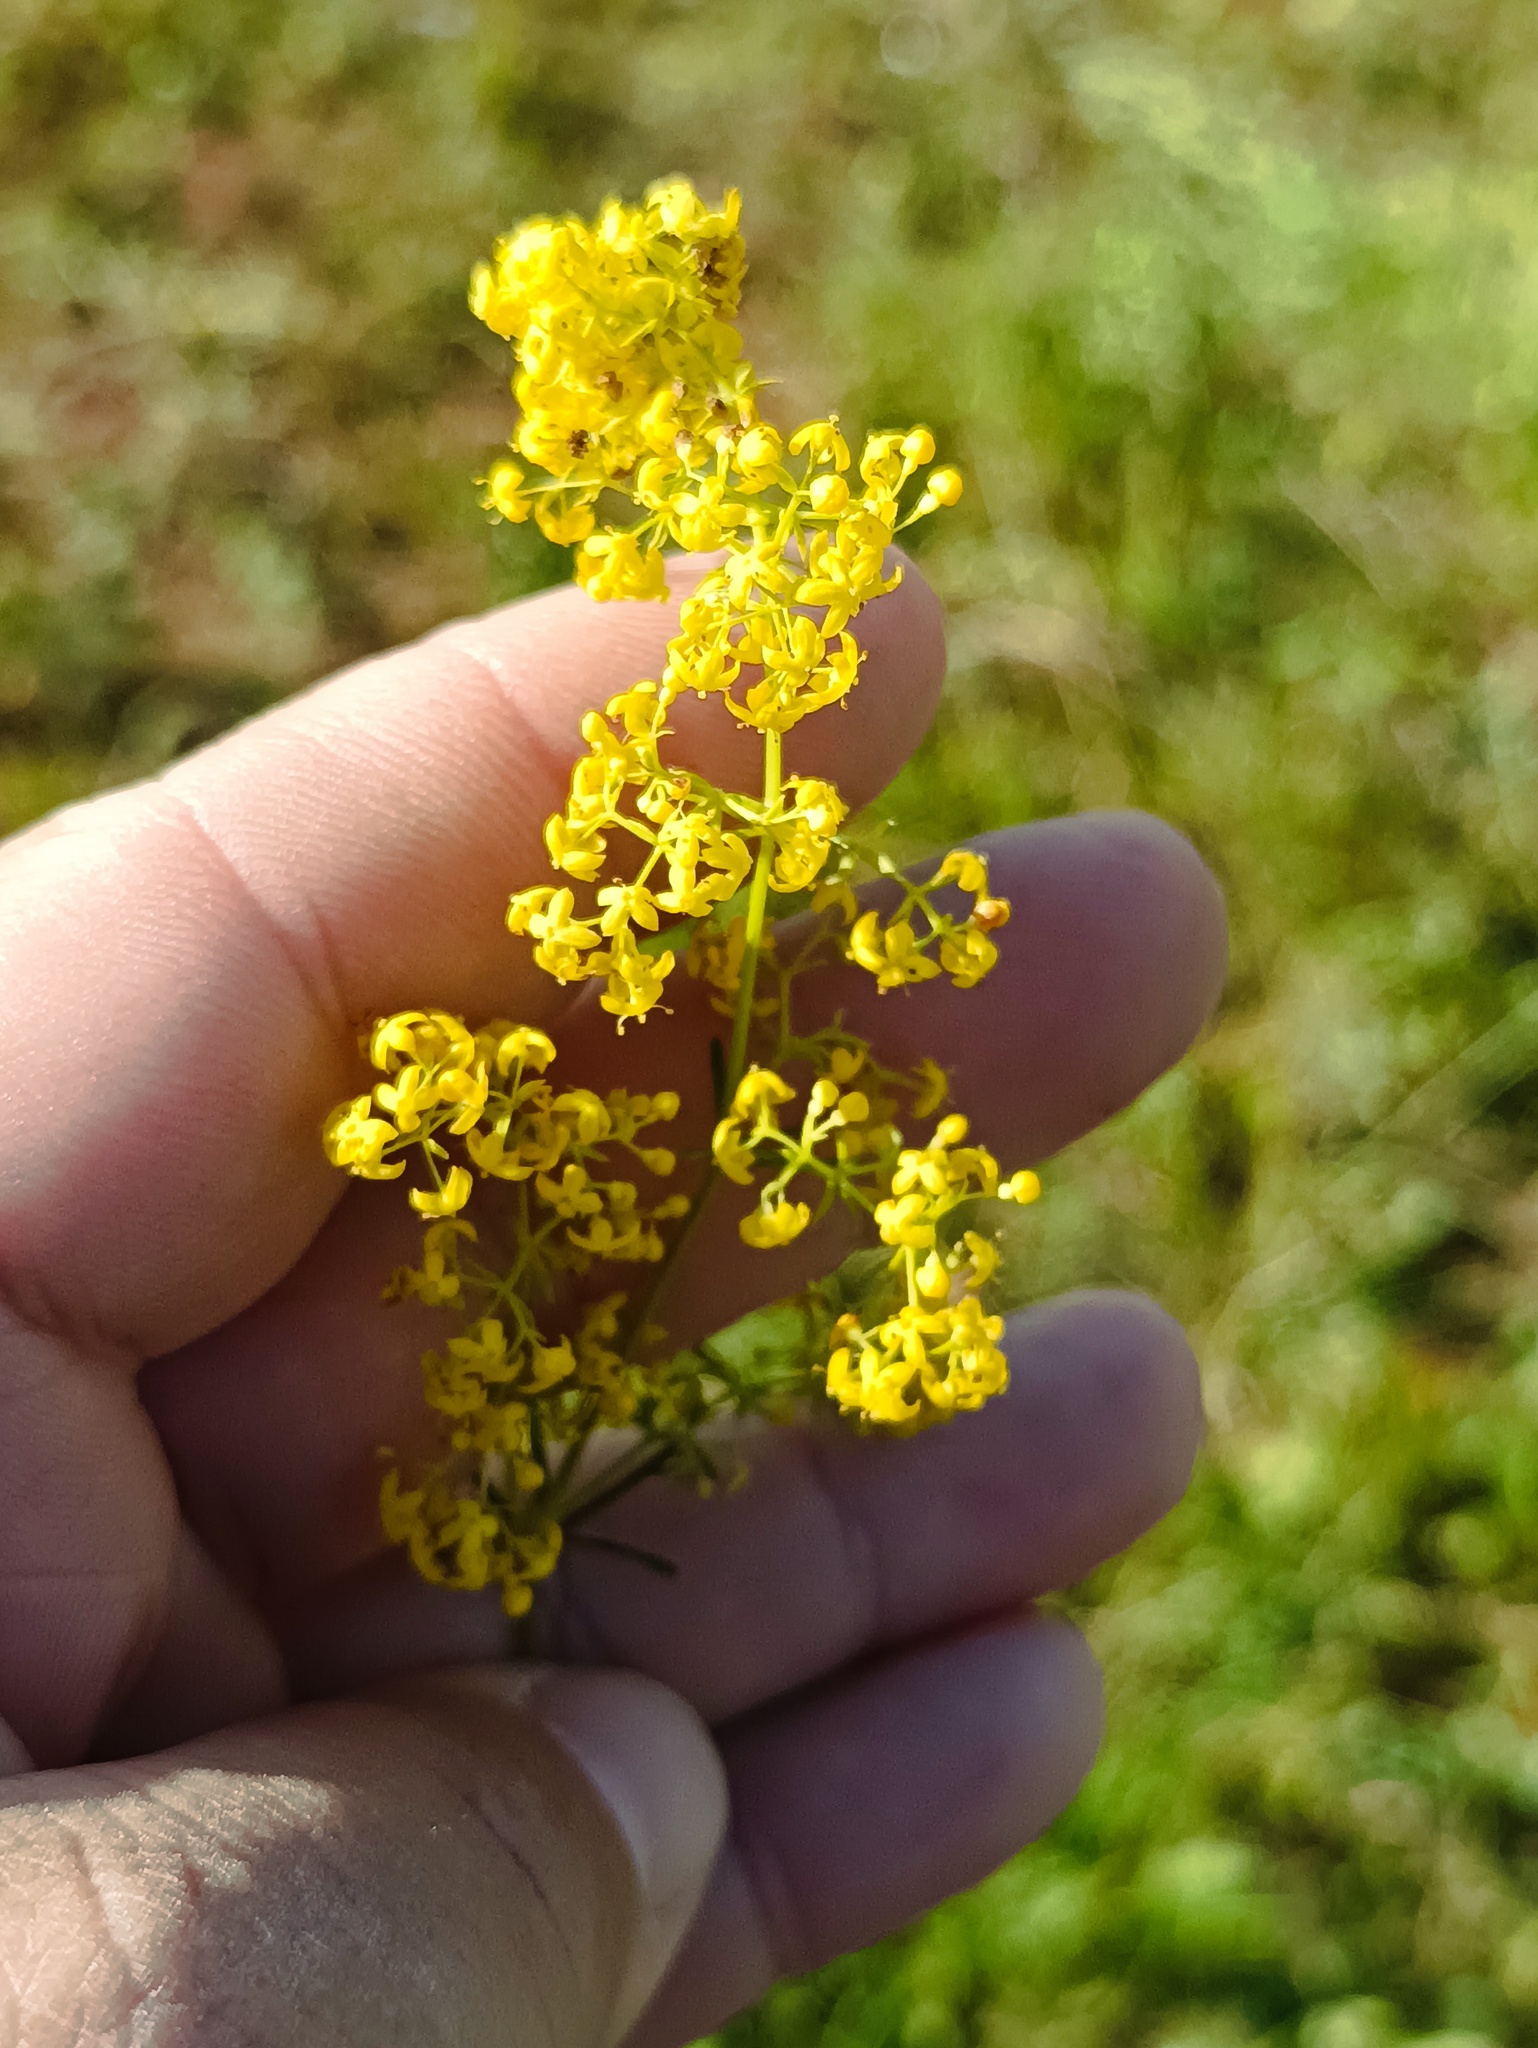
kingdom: Plantae
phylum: Tracheophyta
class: Magnoliopsida
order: Gentianales
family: Rubiaceae
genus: Galium
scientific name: Galium verum
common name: Lady's bedstraw
